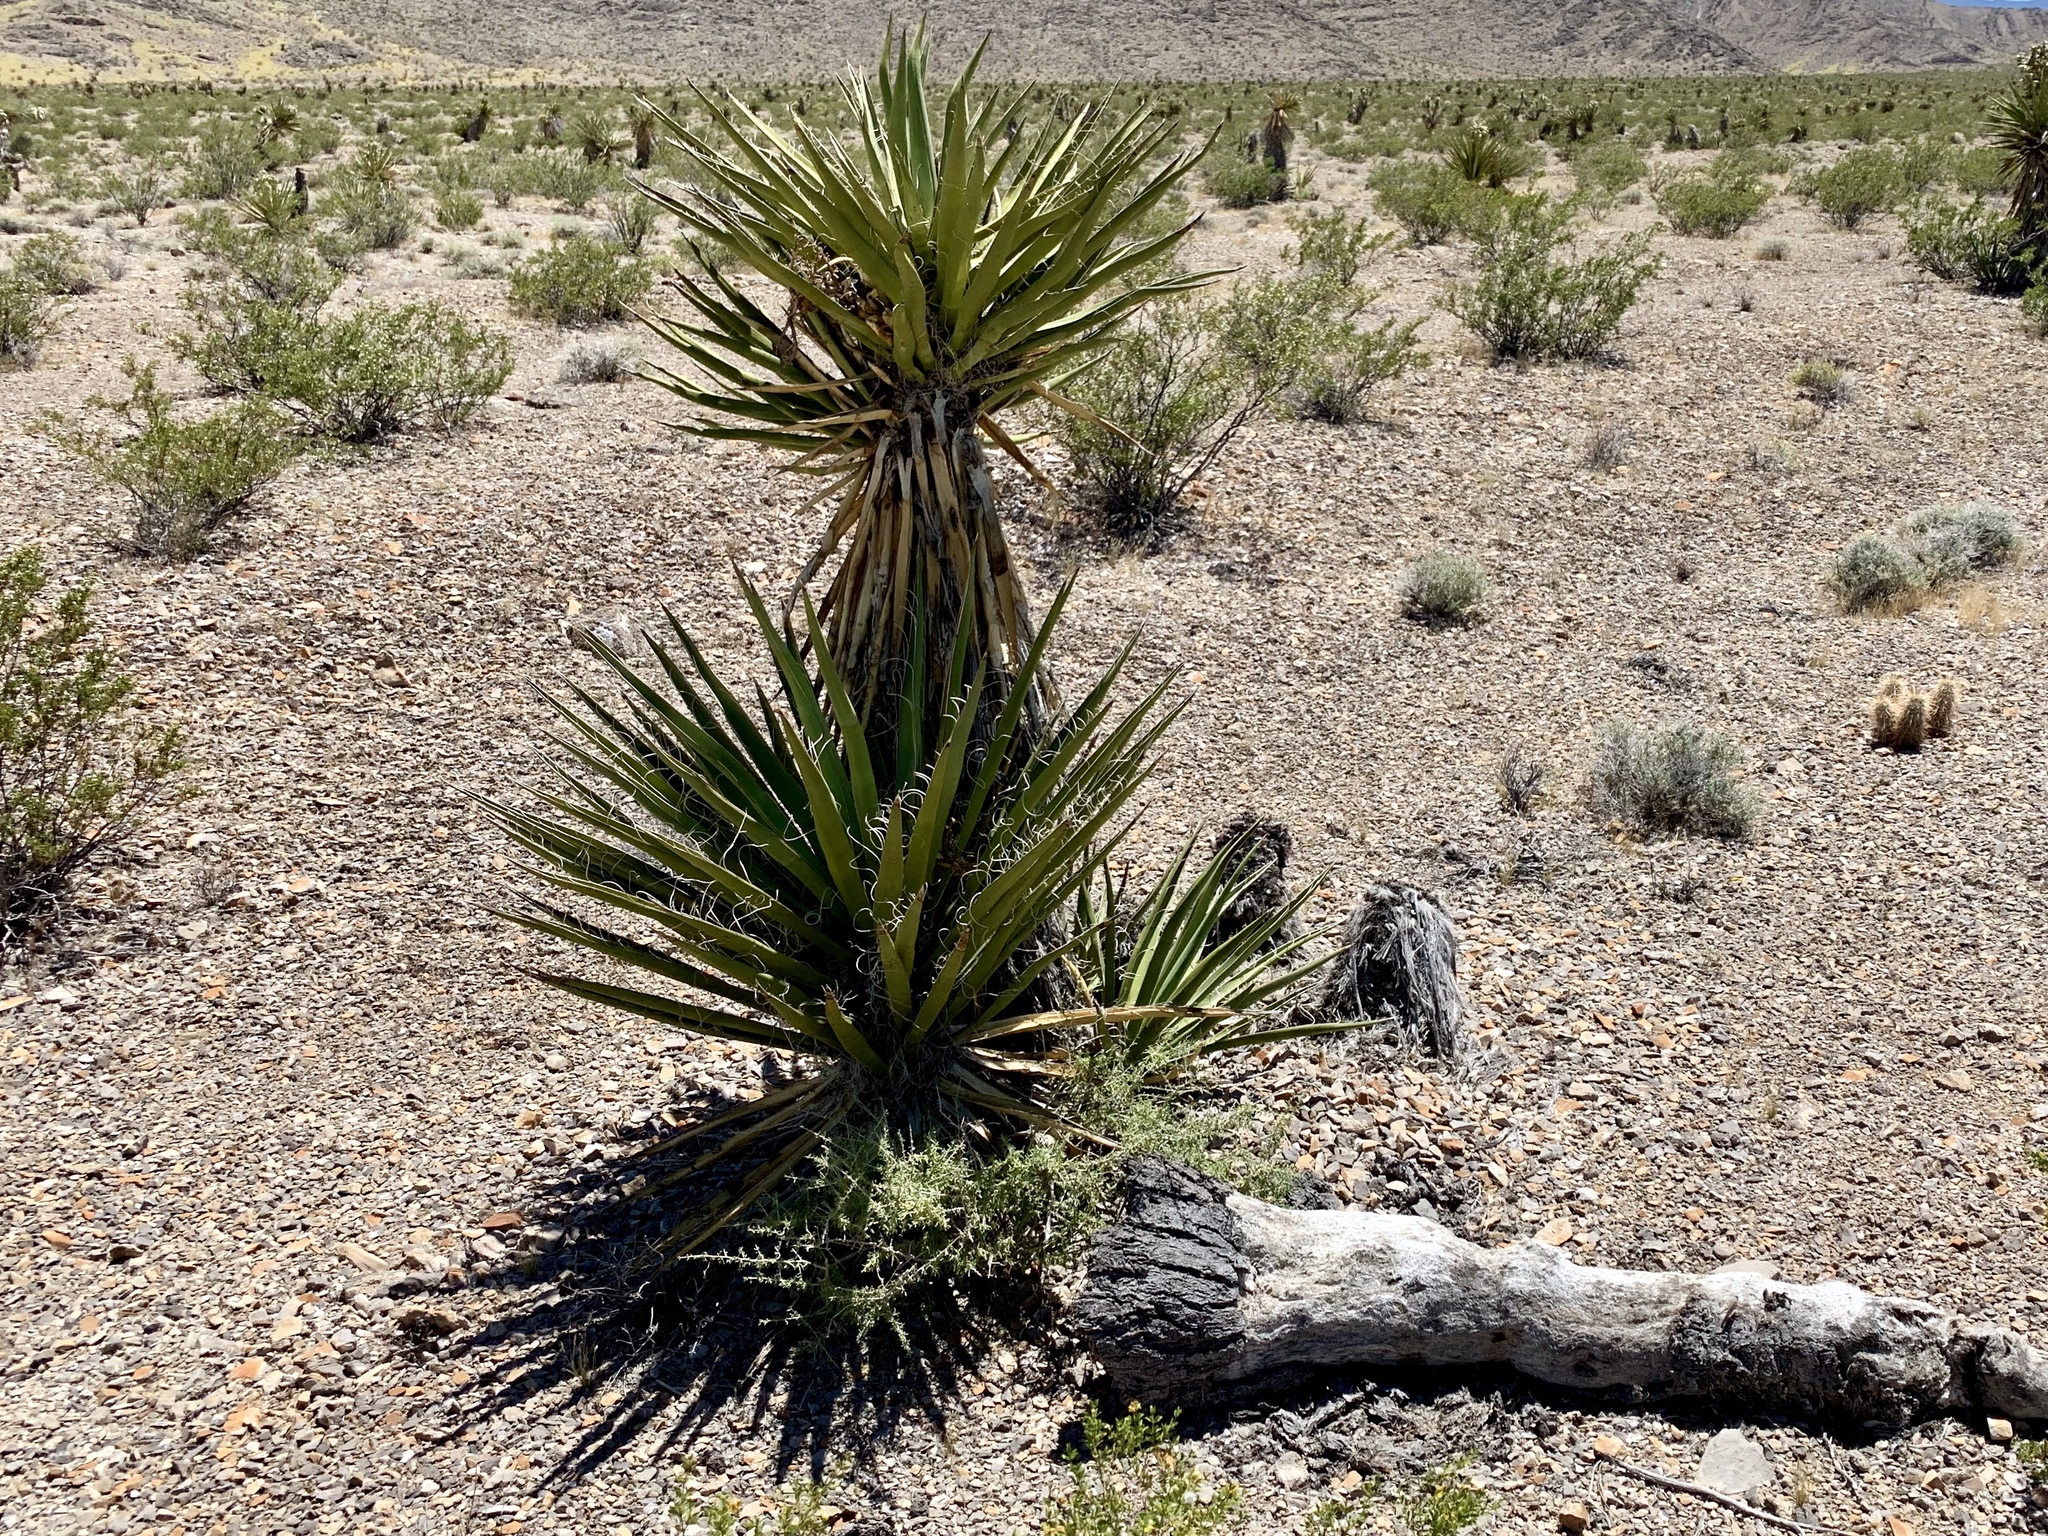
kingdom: Plantae
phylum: Tracheophyta
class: Liliopsida
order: Asparagales
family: Asparagaceae
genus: Yucca
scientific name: Yucca schidigera
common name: Mojave yucca
